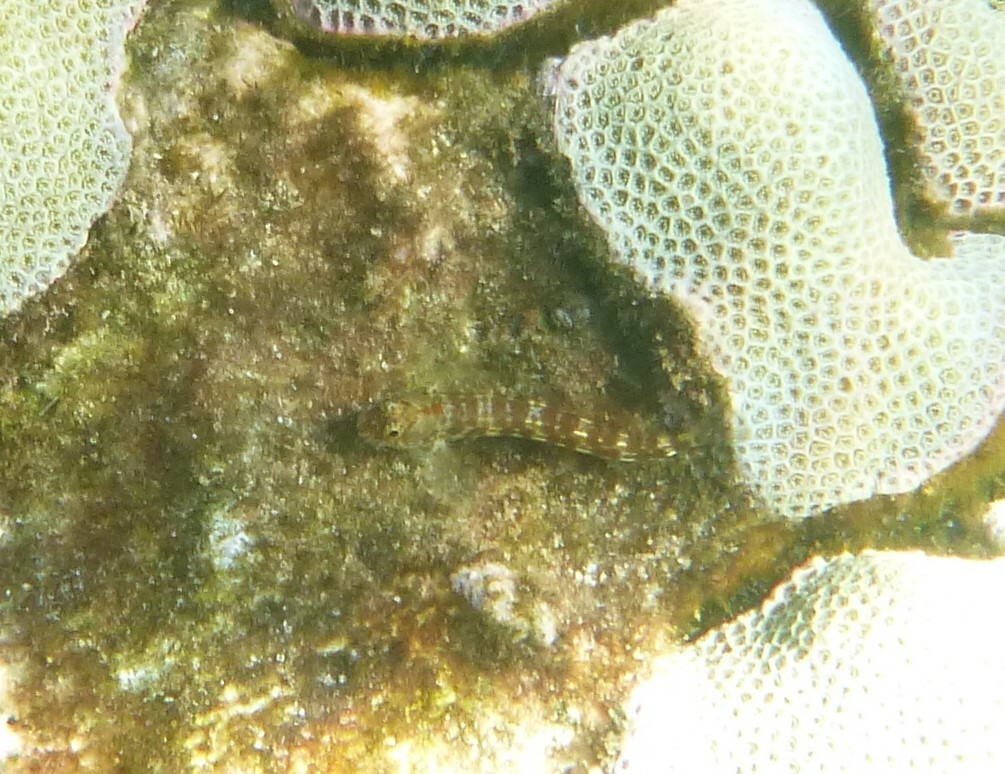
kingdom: Animalia
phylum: Chordata
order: Perciformes
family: Blenniidae
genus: Blenniella
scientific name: Blenniella gibbifrons
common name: Picture rockskipper
